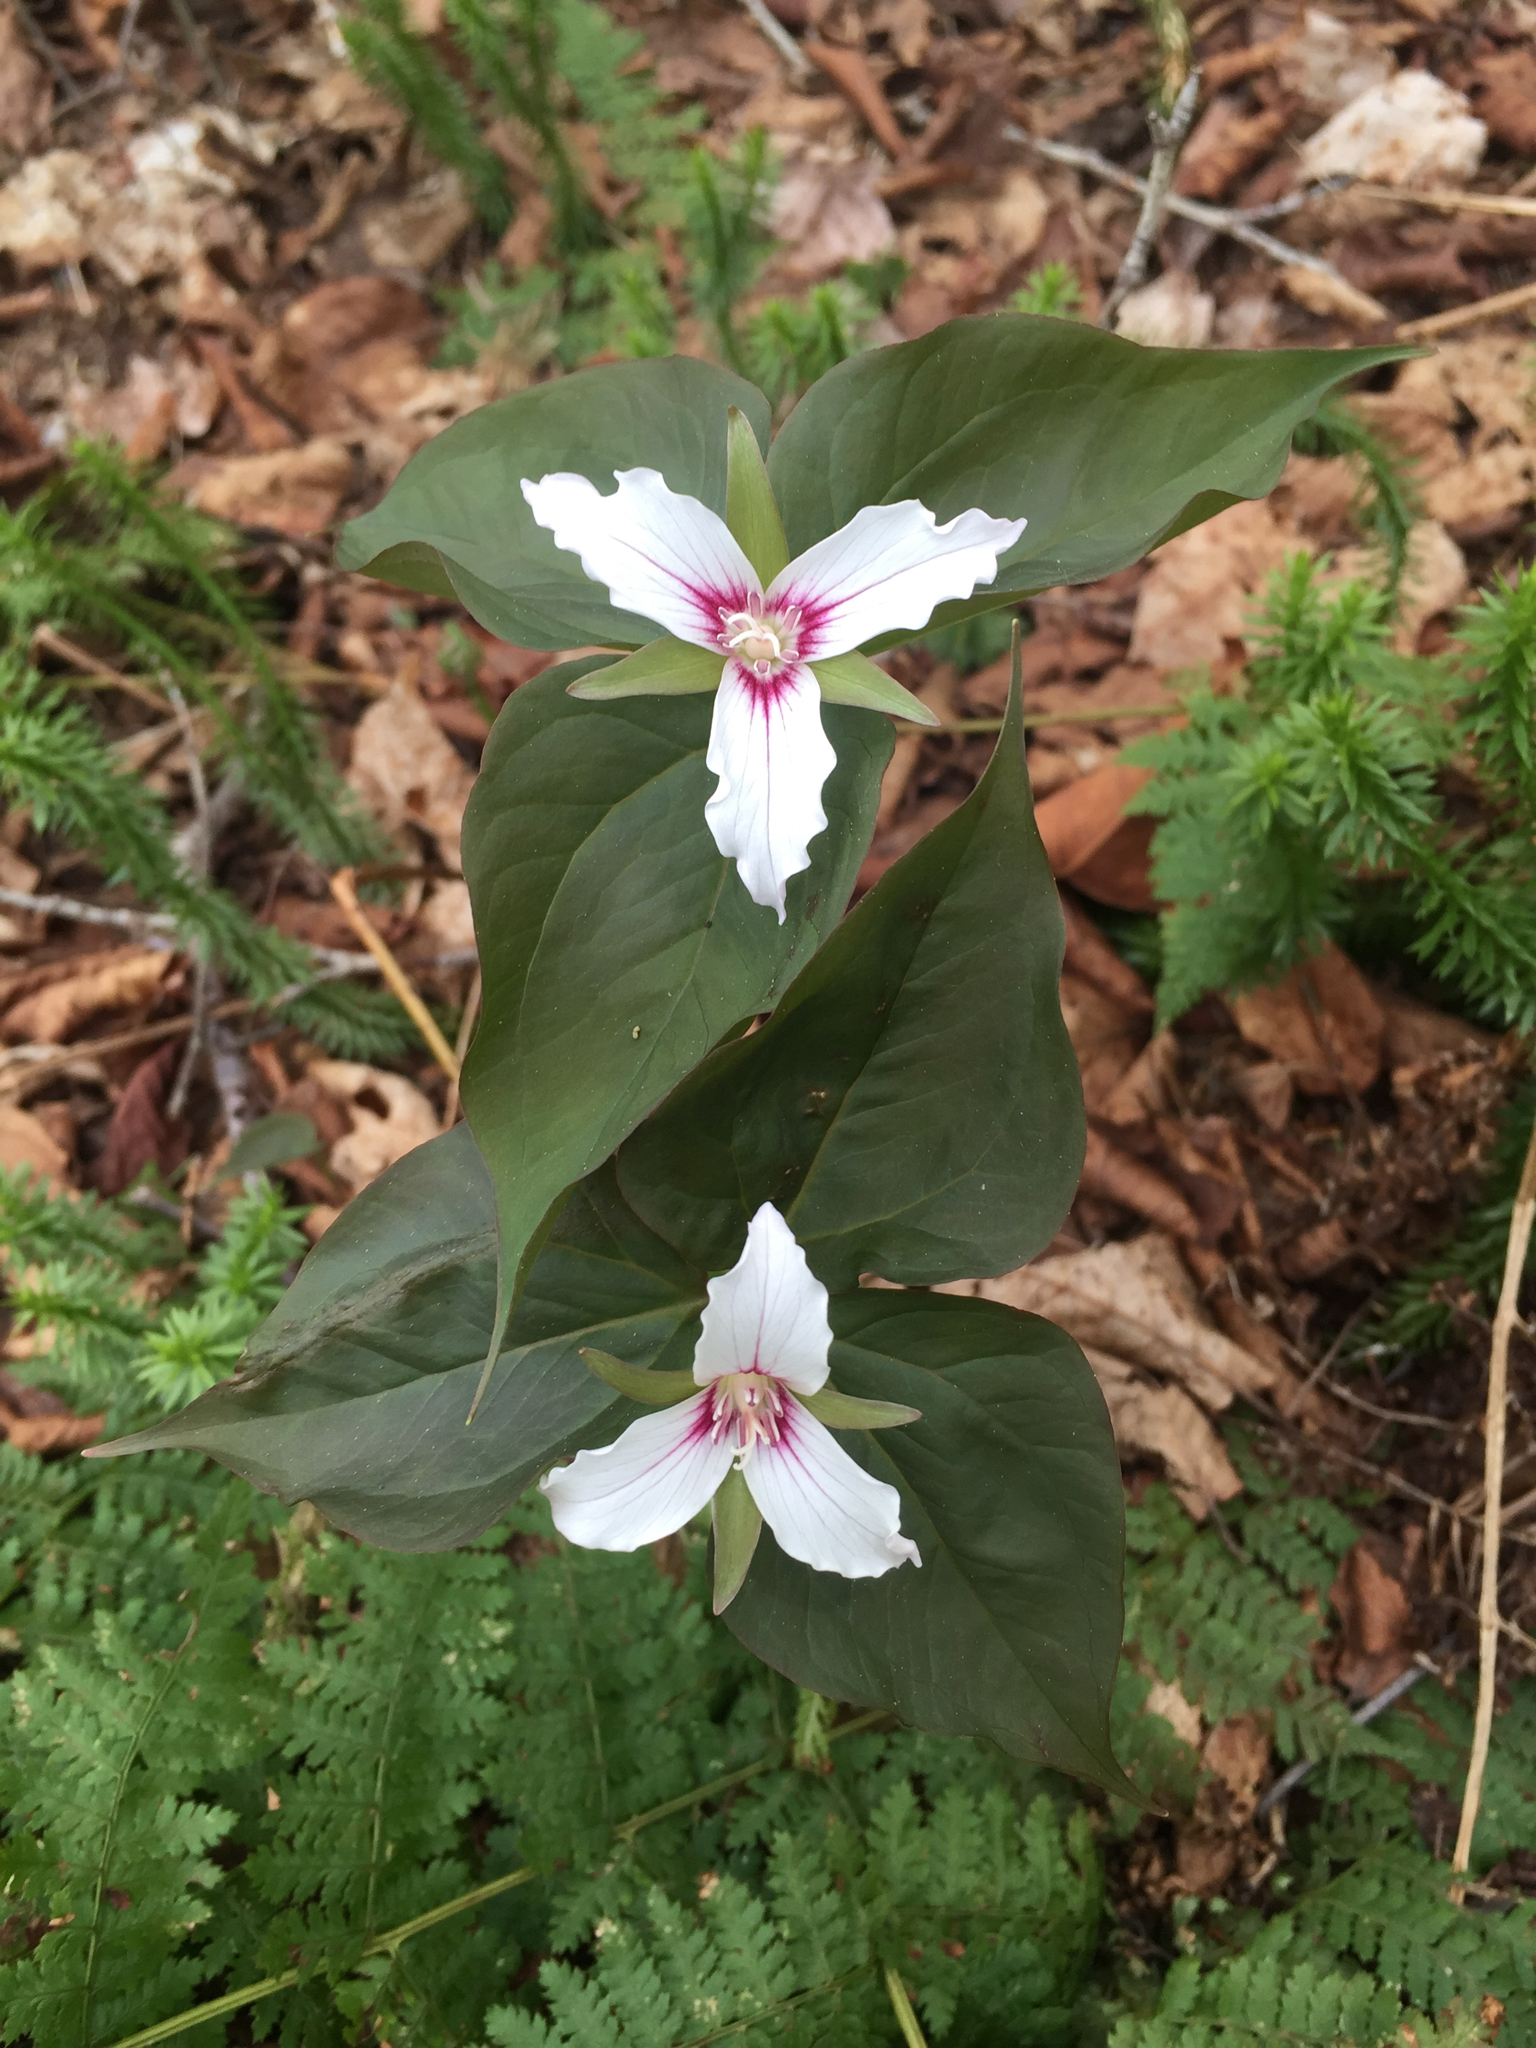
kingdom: Plantae
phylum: Tracheophyta
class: Liliopsida
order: Liliales
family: Melanthiaceae
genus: Trillium
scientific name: Trillium undulatum
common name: Paint trillium
